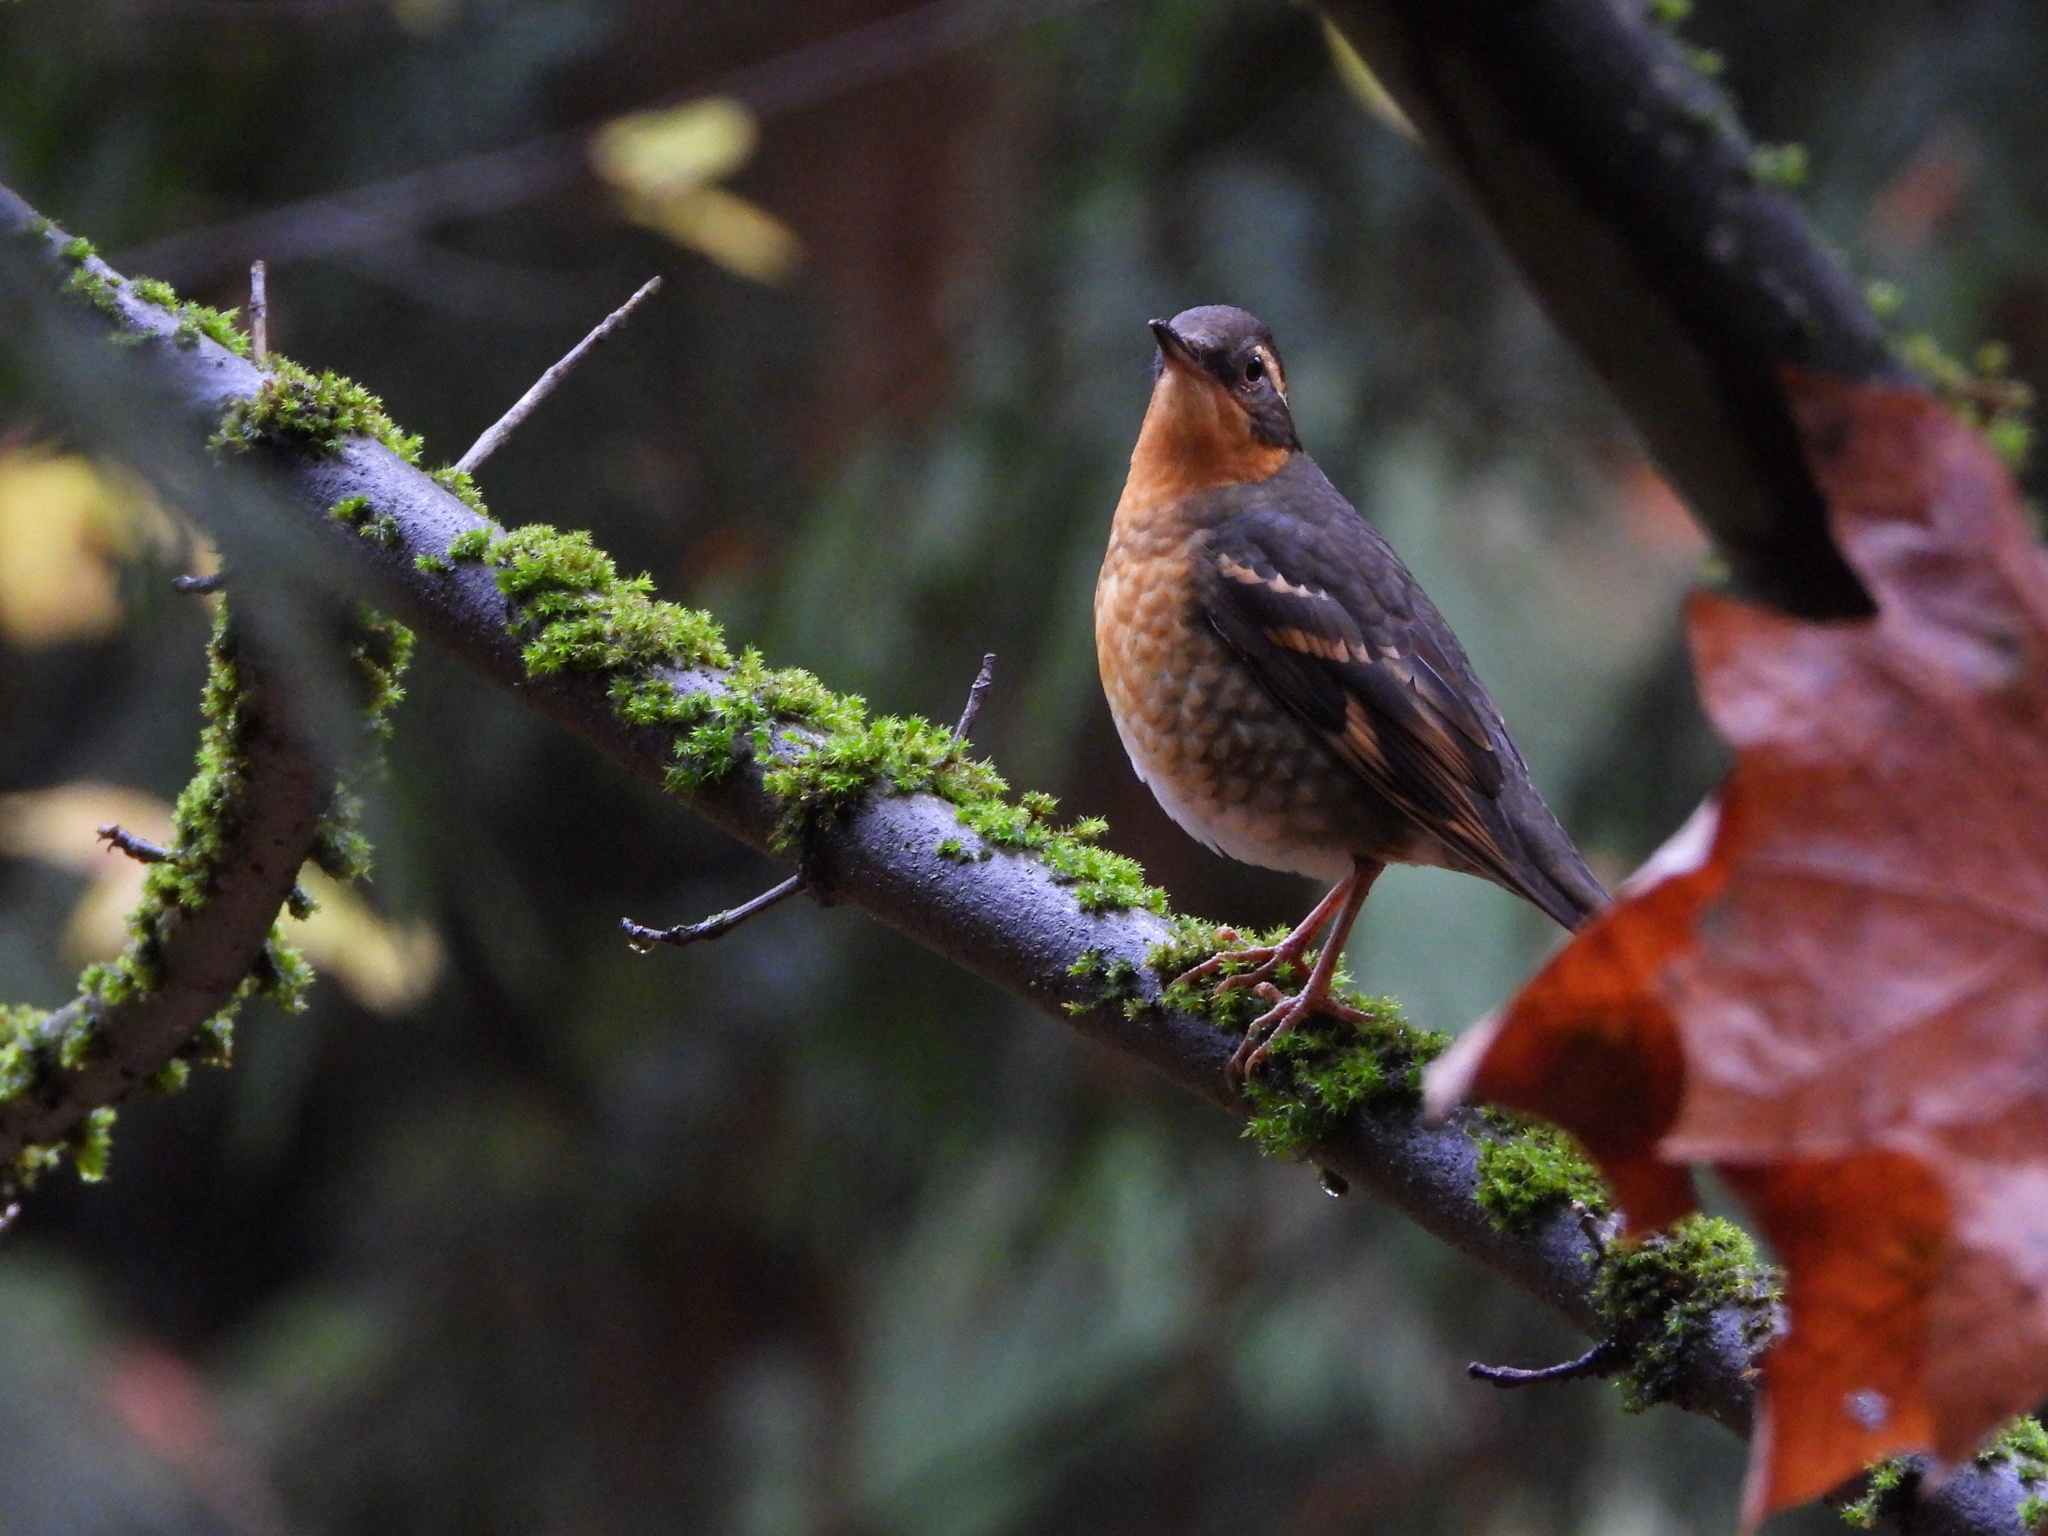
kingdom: Animalia
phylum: Chordata
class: Aves
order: Passeriformes
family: Turdidae
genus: Ixoreus
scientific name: Ixoreus naevius
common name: Varied thrush
